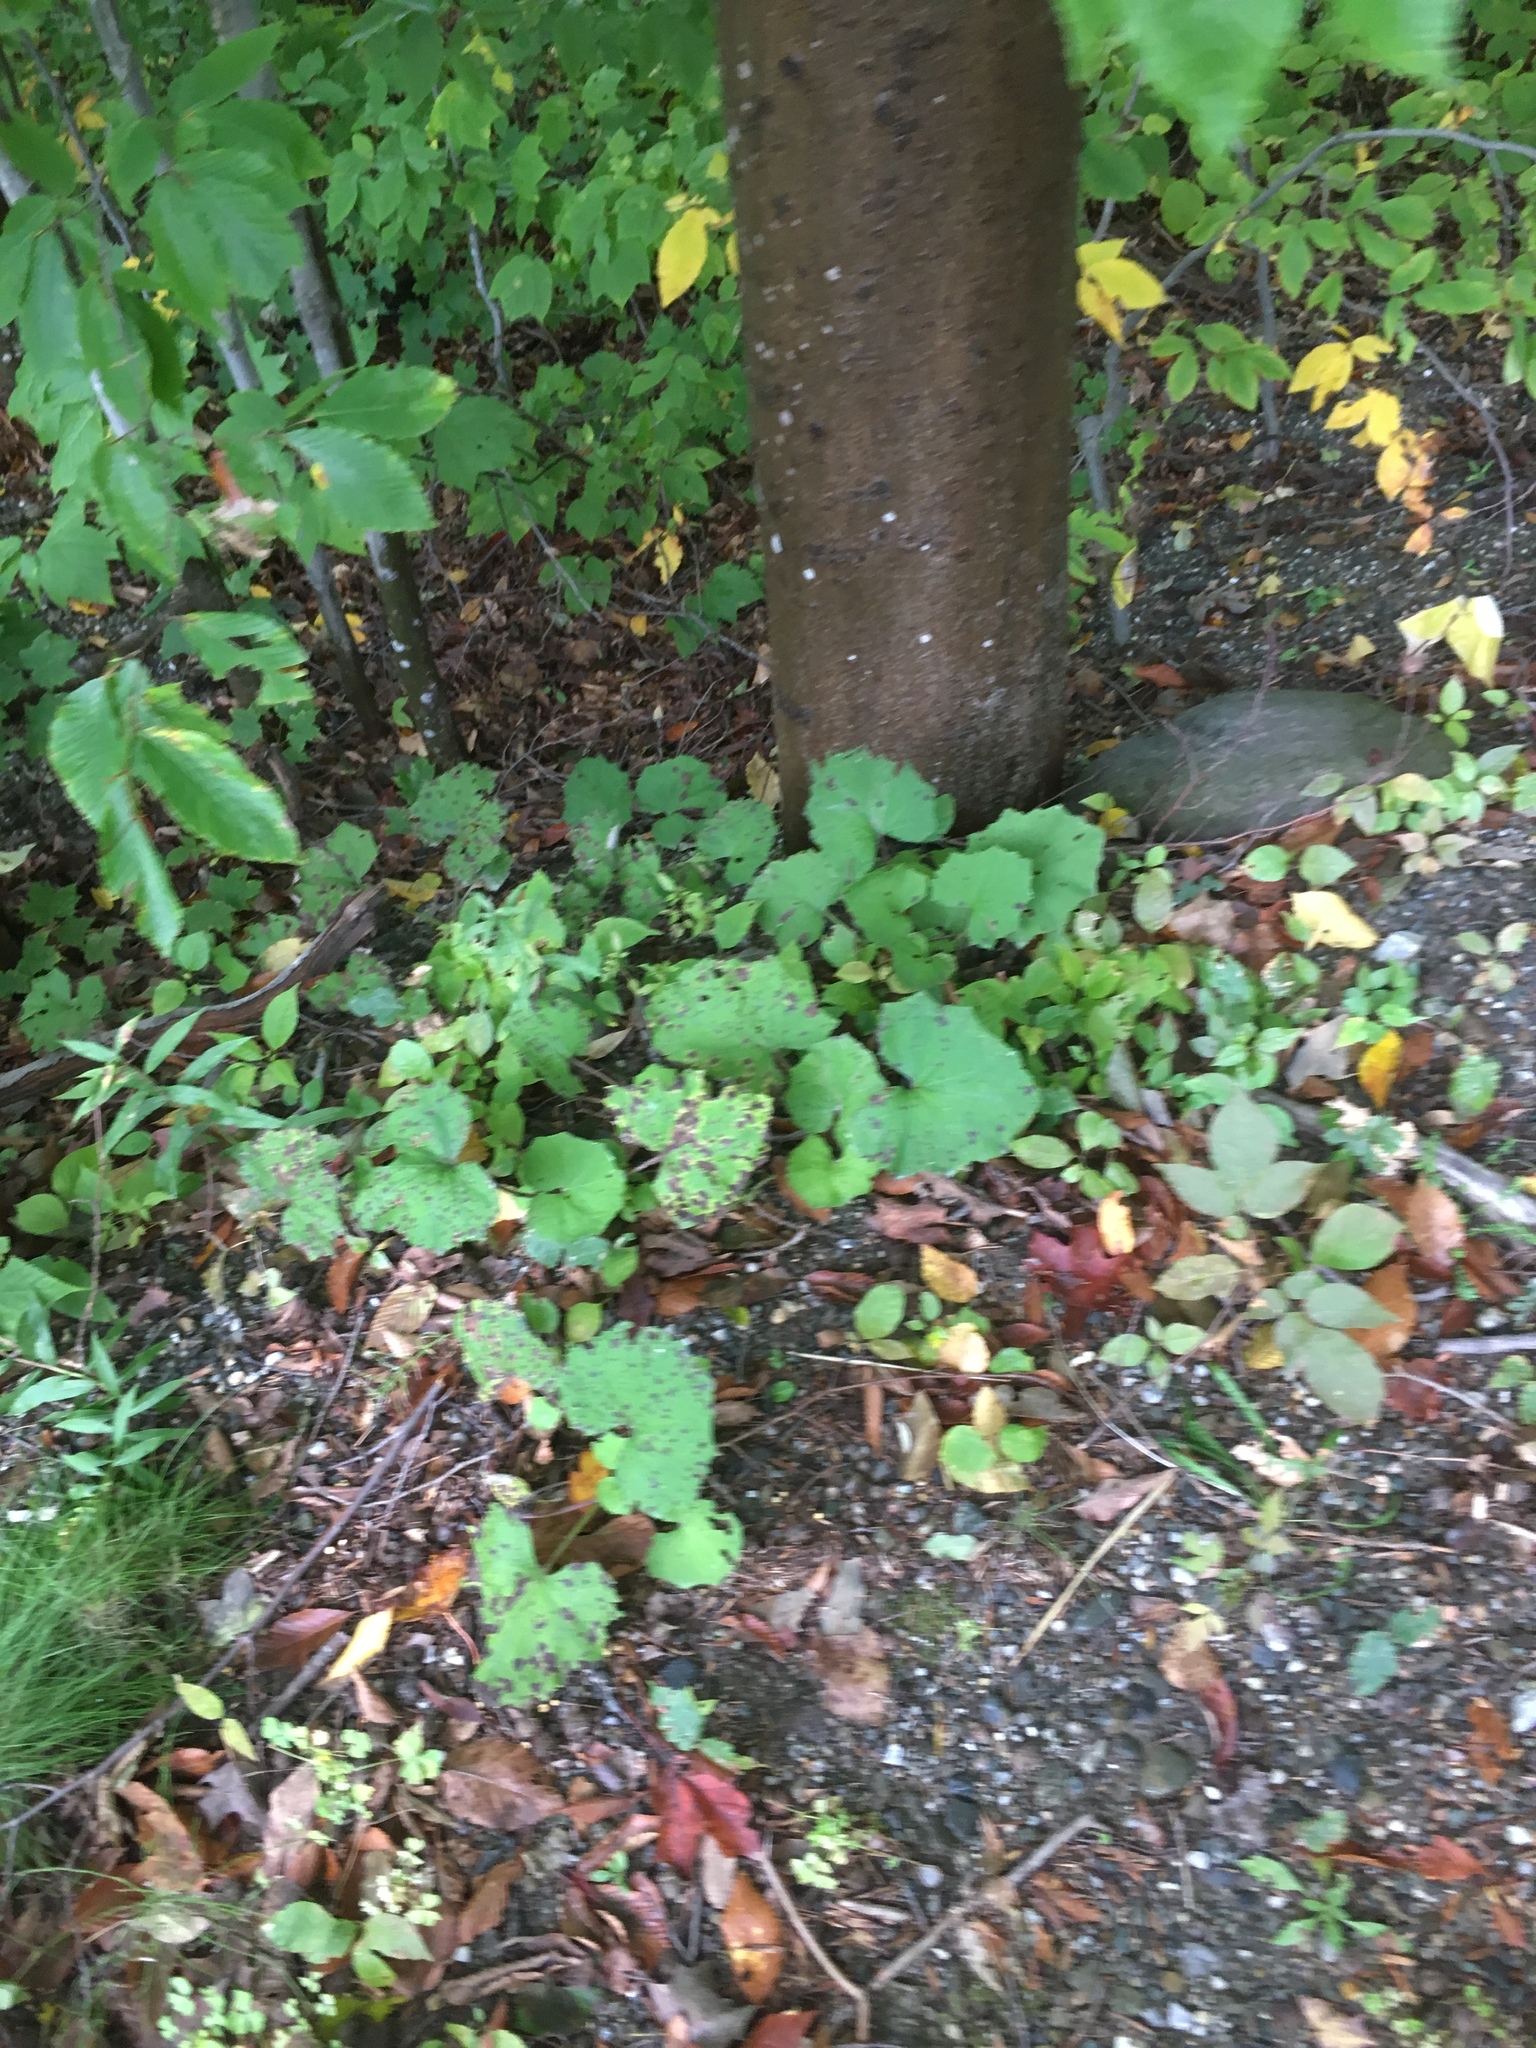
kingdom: Plantae
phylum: Tracheophyta
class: Magnoliopsida
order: Asterales
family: Asteraceae
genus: Tussilago
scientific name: Tussilago farfara
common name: Coltsfoot
